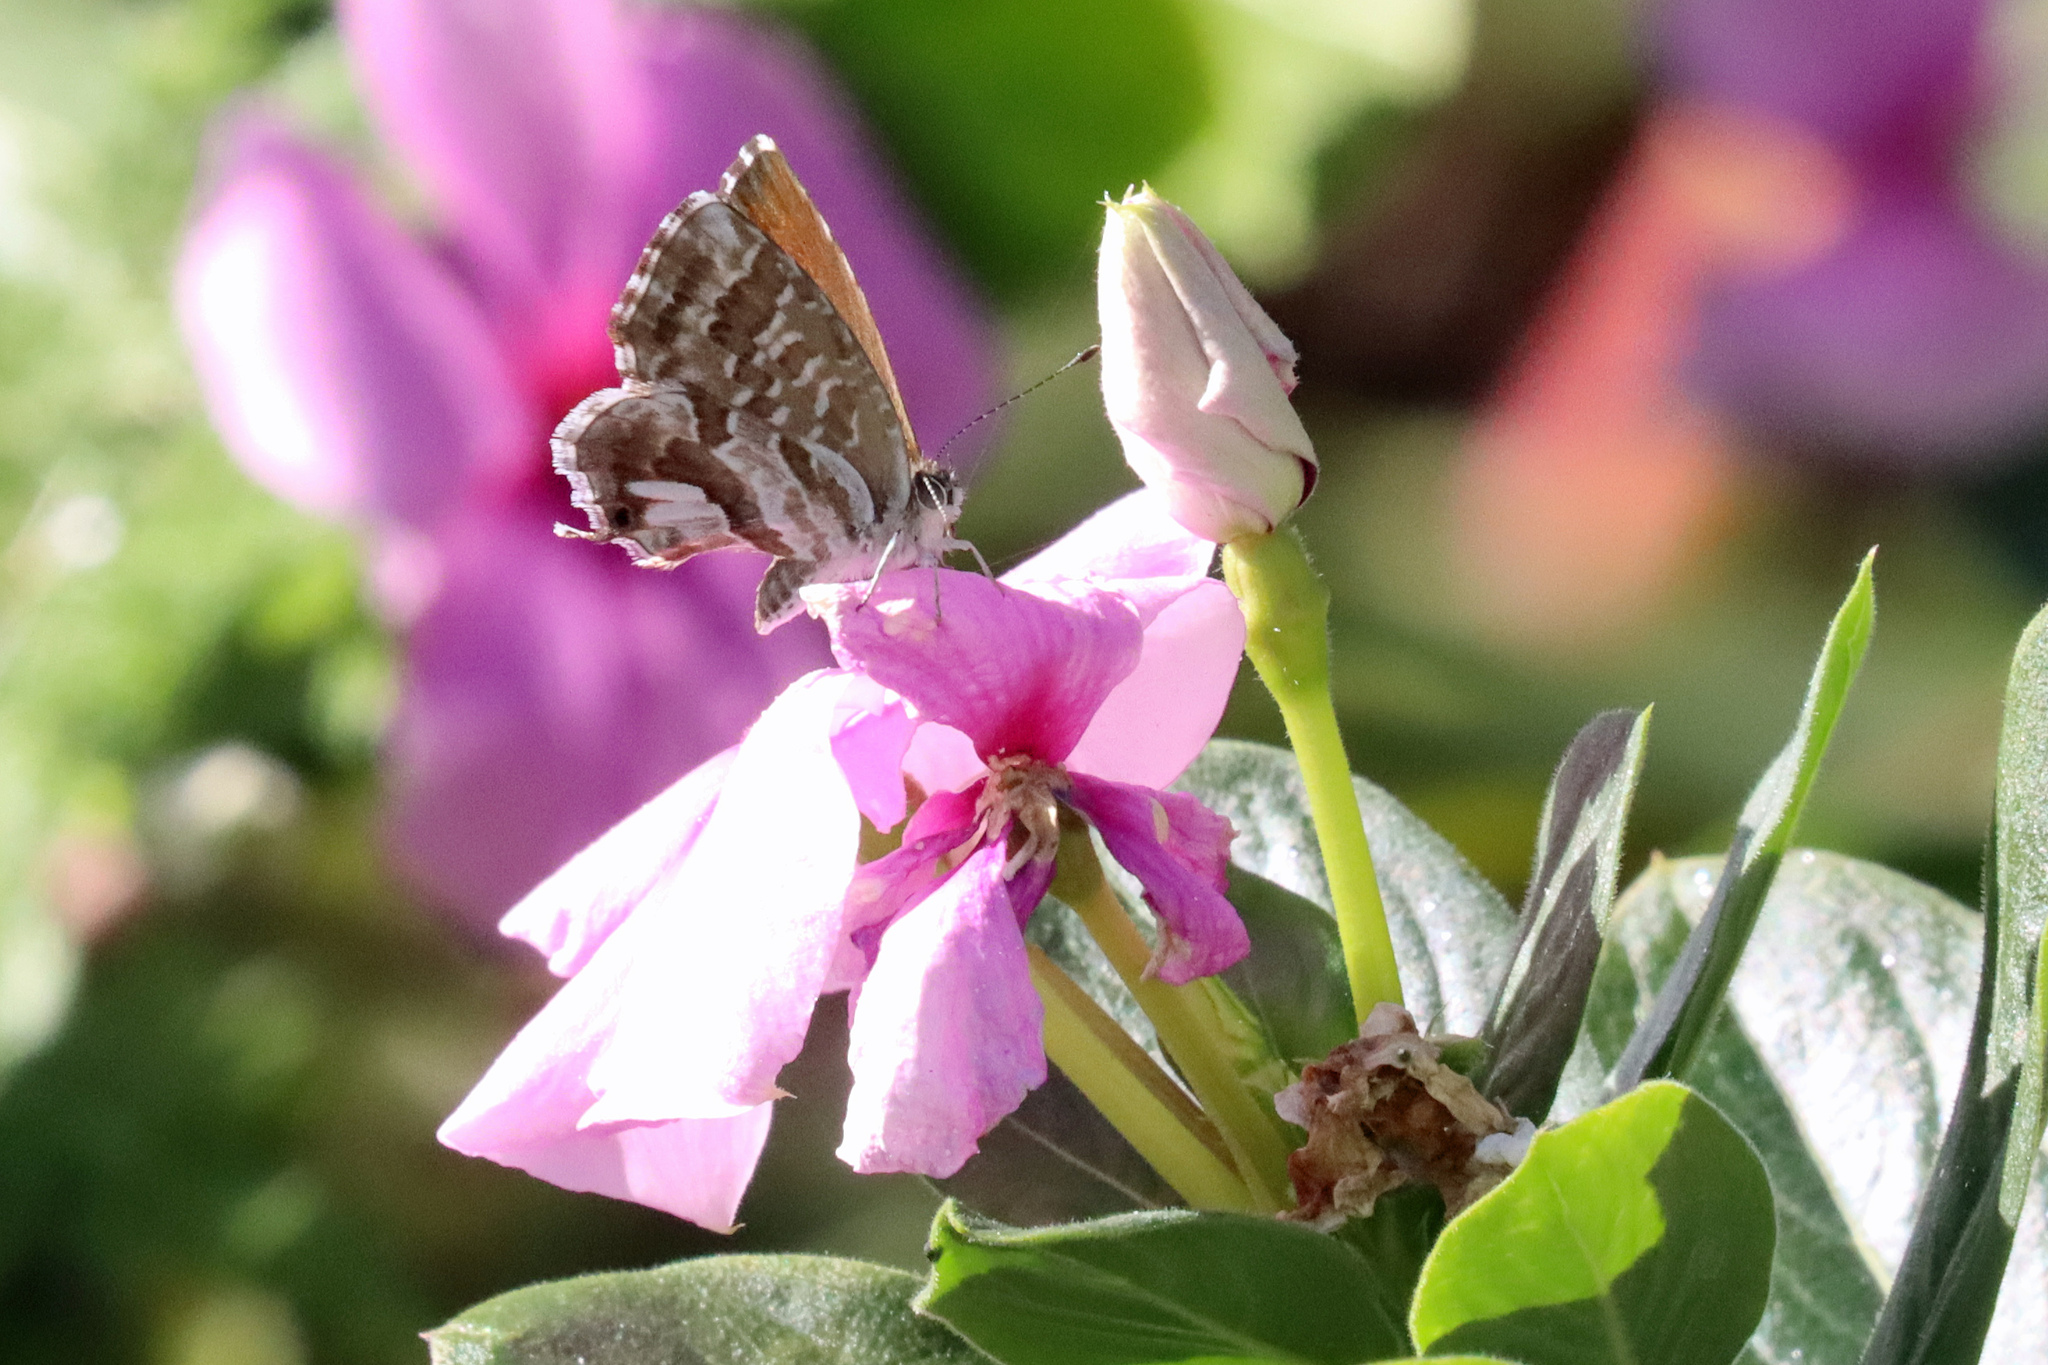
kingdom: Animalia
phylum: Arthropoda
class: Insecta
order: Lepidoptera
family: Lycaenidae
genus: Cacyreus
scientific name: Cacyreus marshalli
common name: Geranium bronze
